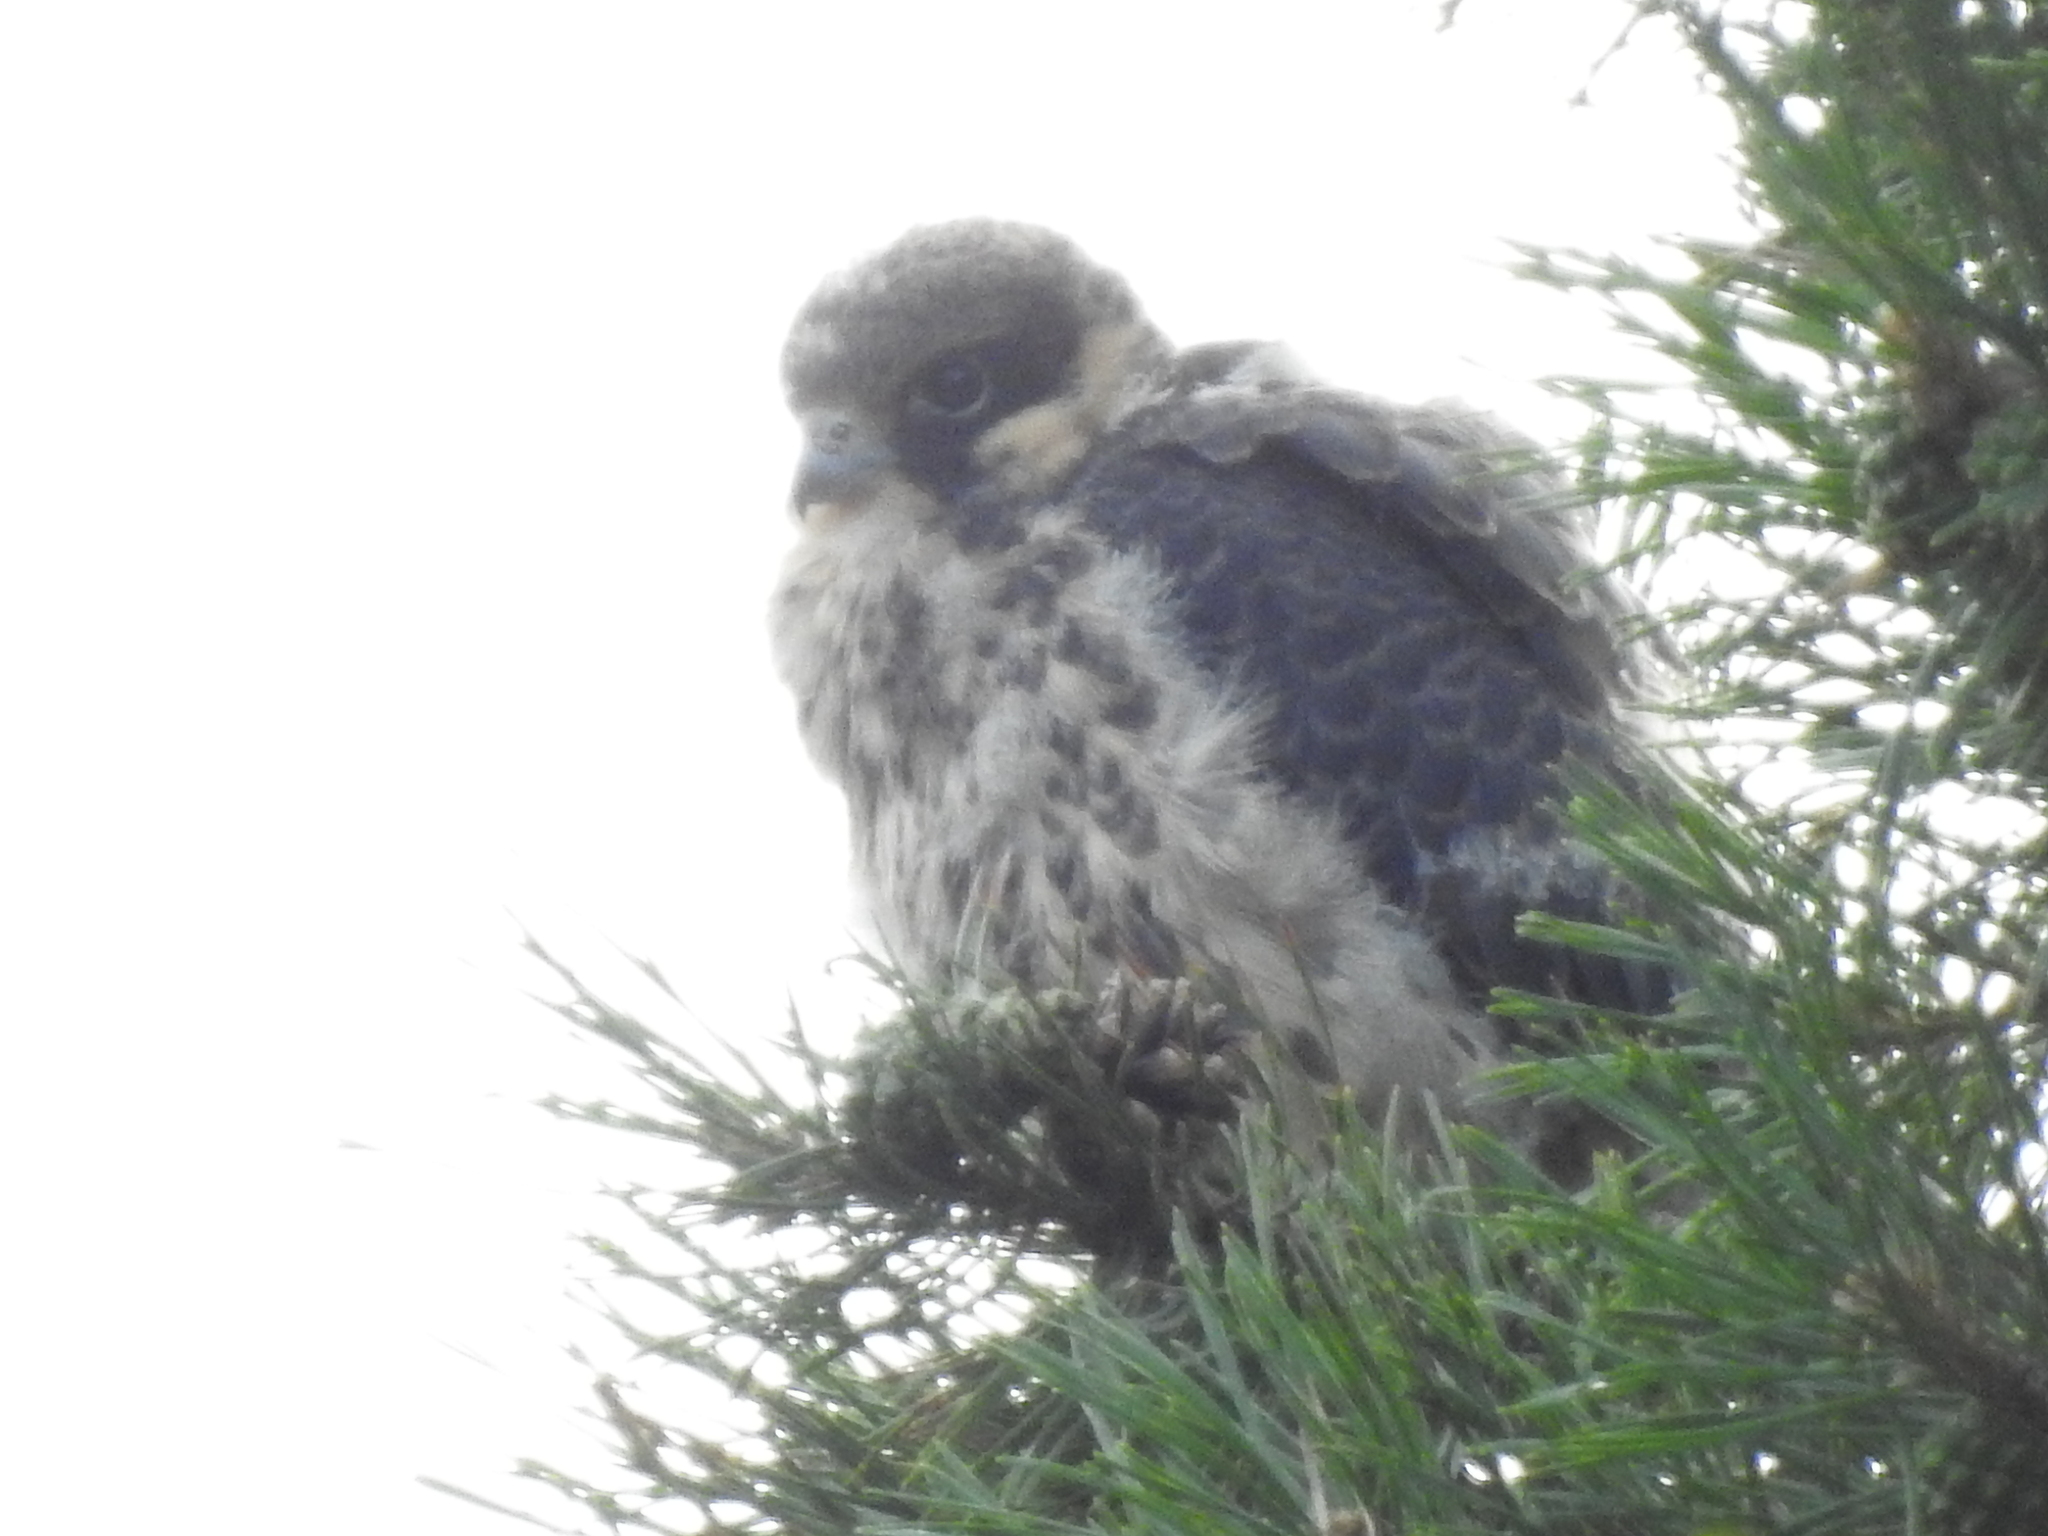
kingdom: Animalia
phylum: Chordata
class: Aves
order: Falconiformes
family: Falconidae
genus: Falco
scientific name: Falco subbuteo
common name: Eurasian hobby
